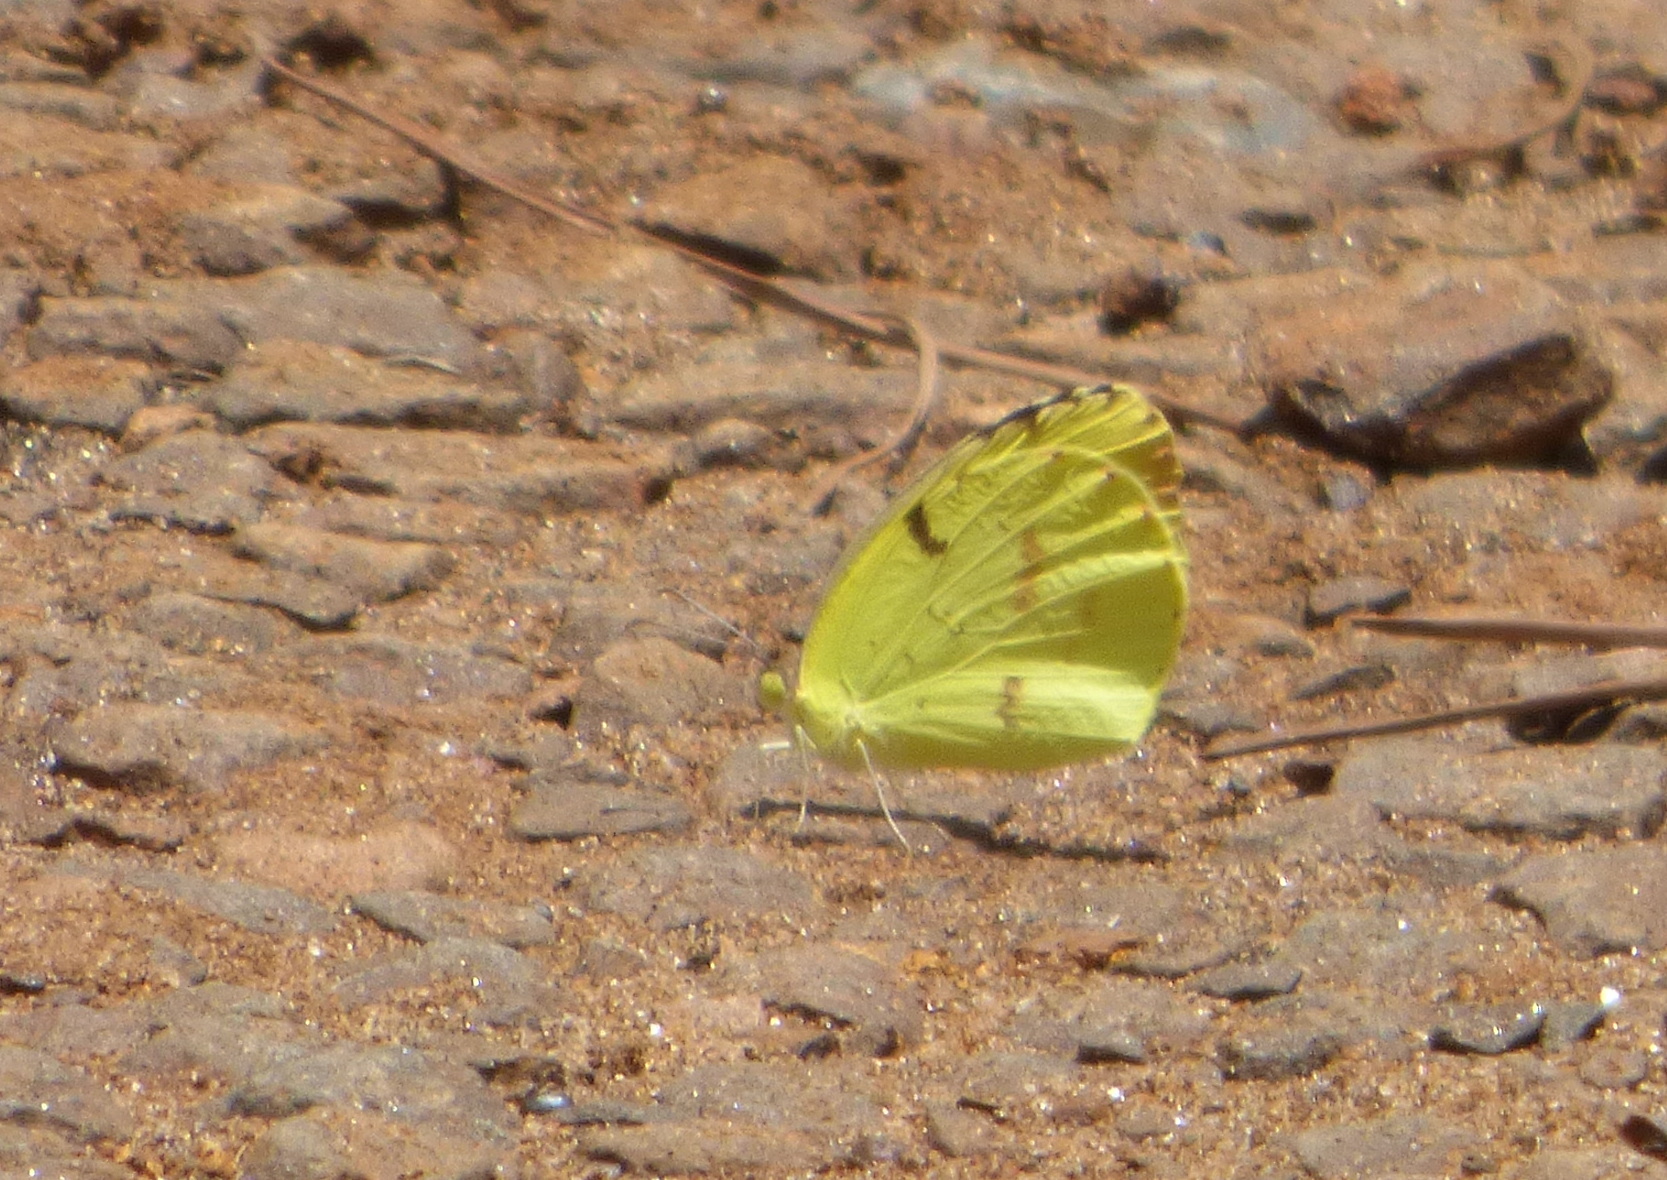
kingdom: Animalia
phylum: Arthropoda
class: Insecta
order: Lepidoptera
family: Pieridae
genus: Teriocolias
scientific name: Teriocolias
